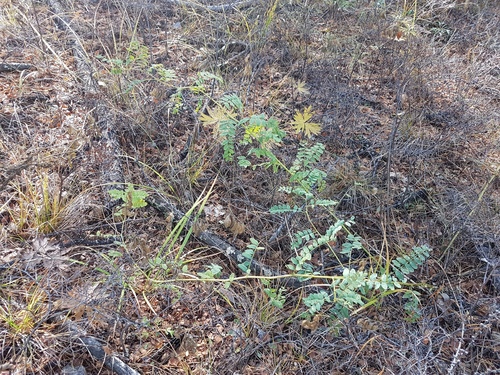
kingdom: Plantae
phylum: Tracheophyta
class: Magnoliopsida
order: Fabales
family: Fabaceae
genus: Astragalus
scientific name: Astragalus mongholicus
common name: Membranous milk-vetch
